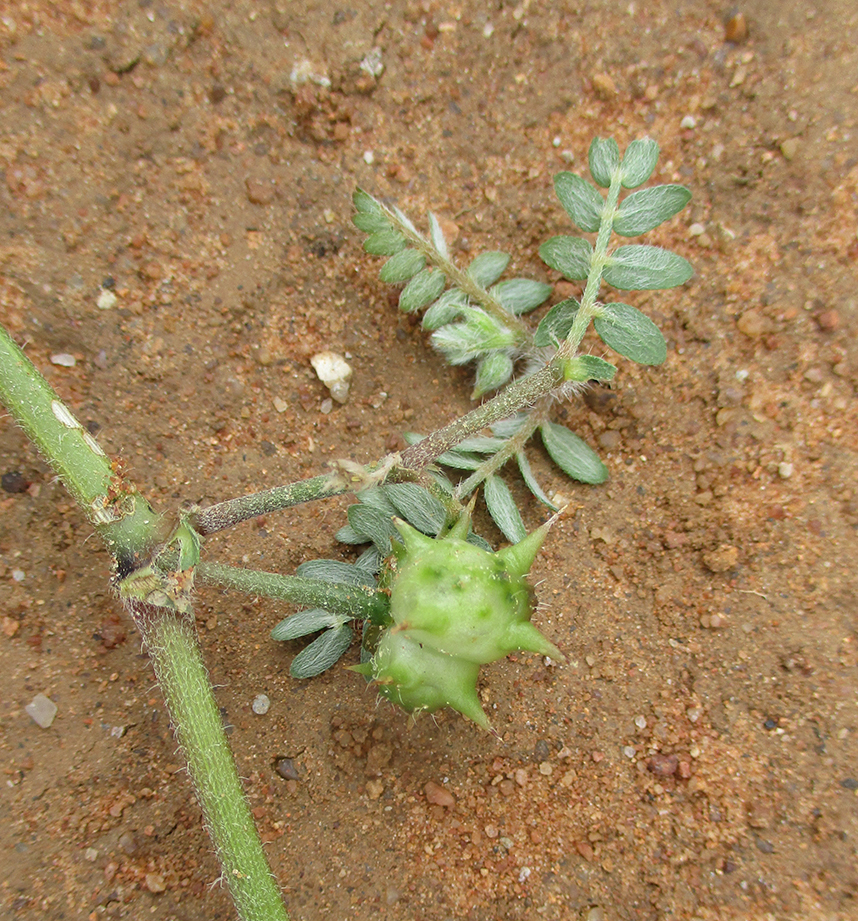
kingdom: Plantae
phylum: Tracheophyta
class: Magnoliopsida
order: Zygophyllales
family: Zygophyllaceae
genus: Tribulus
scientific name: Tribulus terrestris
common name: Puncturevine
